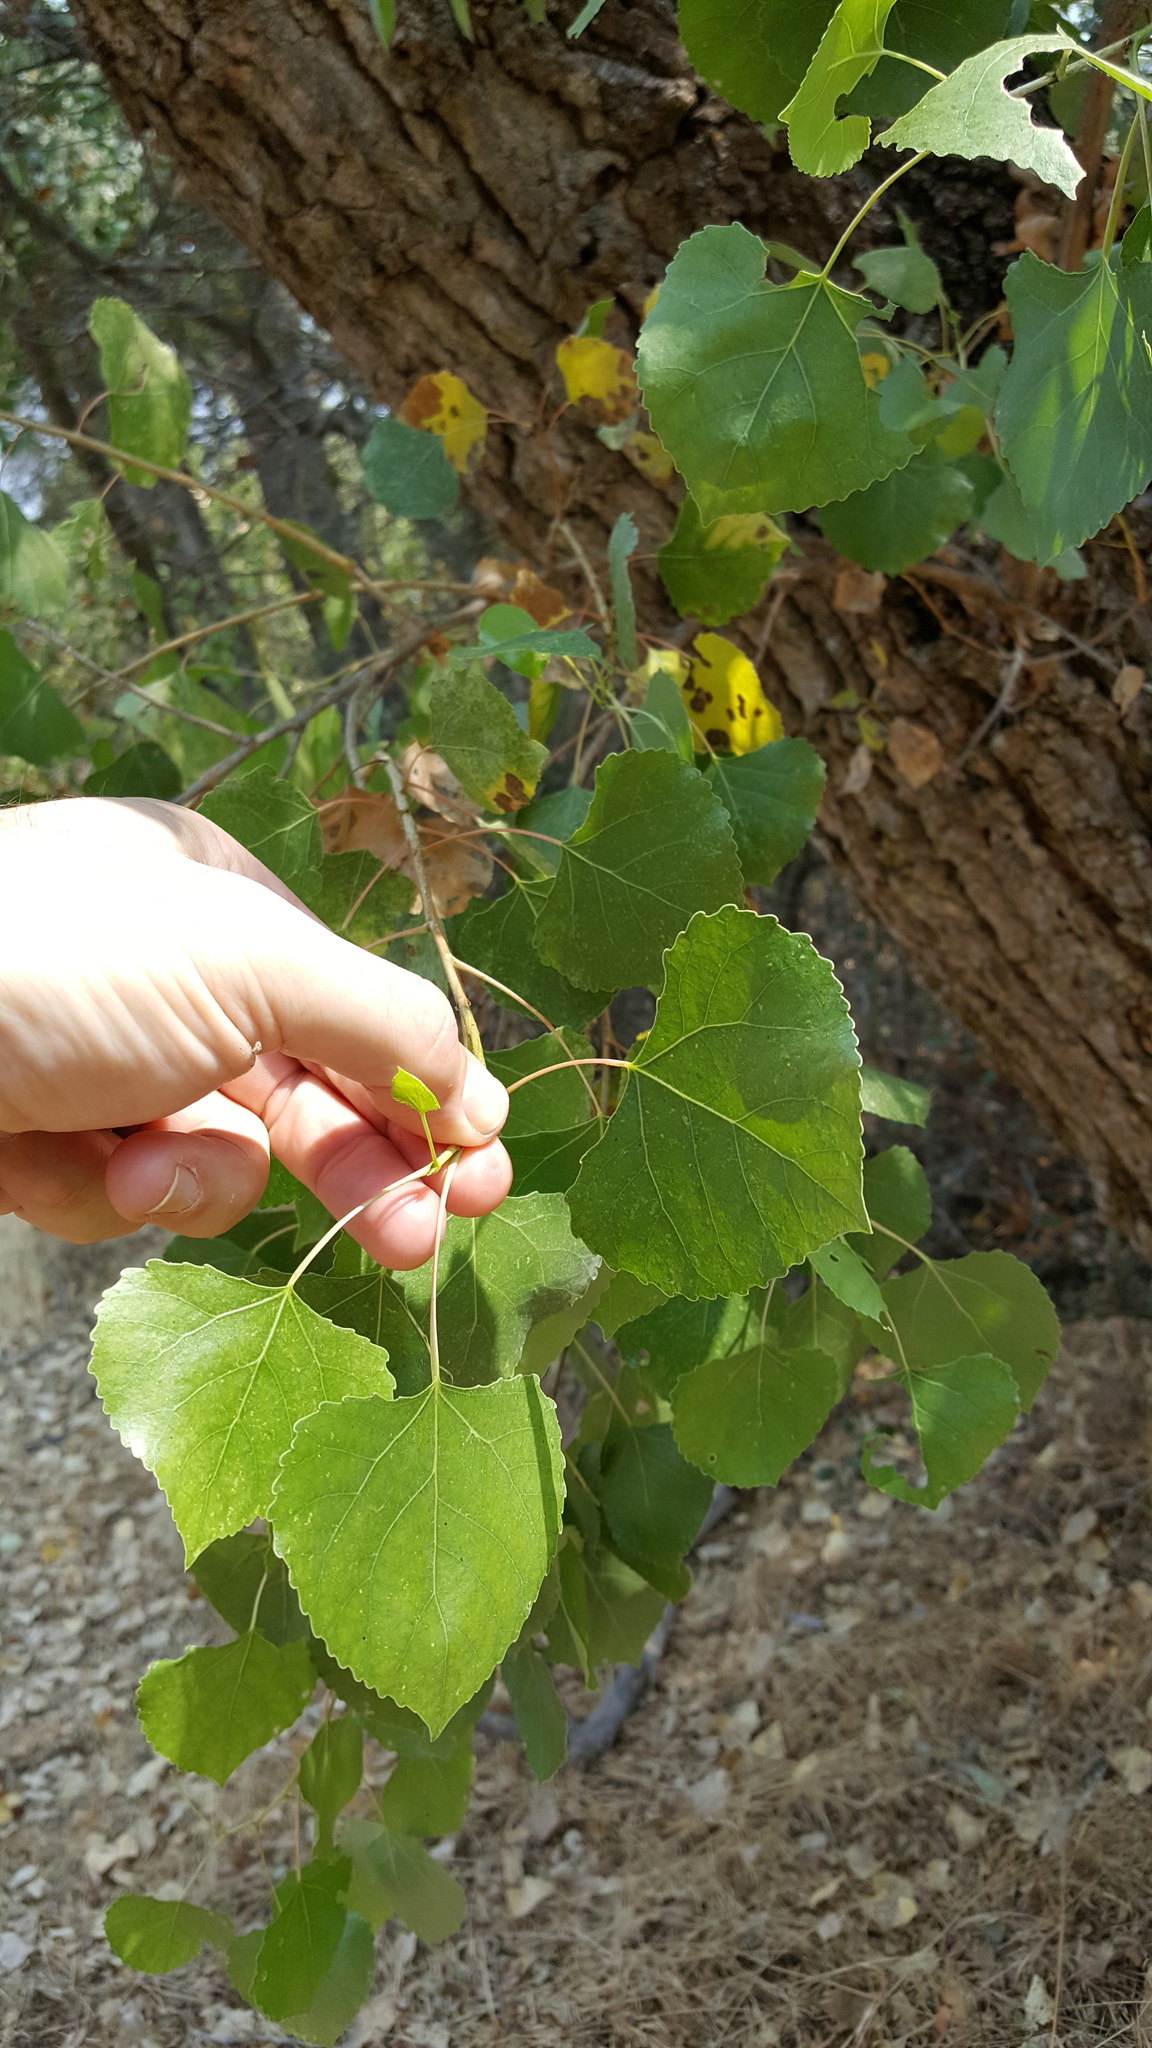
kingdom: Plantae
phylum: Tracheophyta
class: Magnoliopsida
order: Malpighiales
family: Salicaceae
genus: Populus
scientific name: Populus fremontii
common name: Fremont's cottonwood
